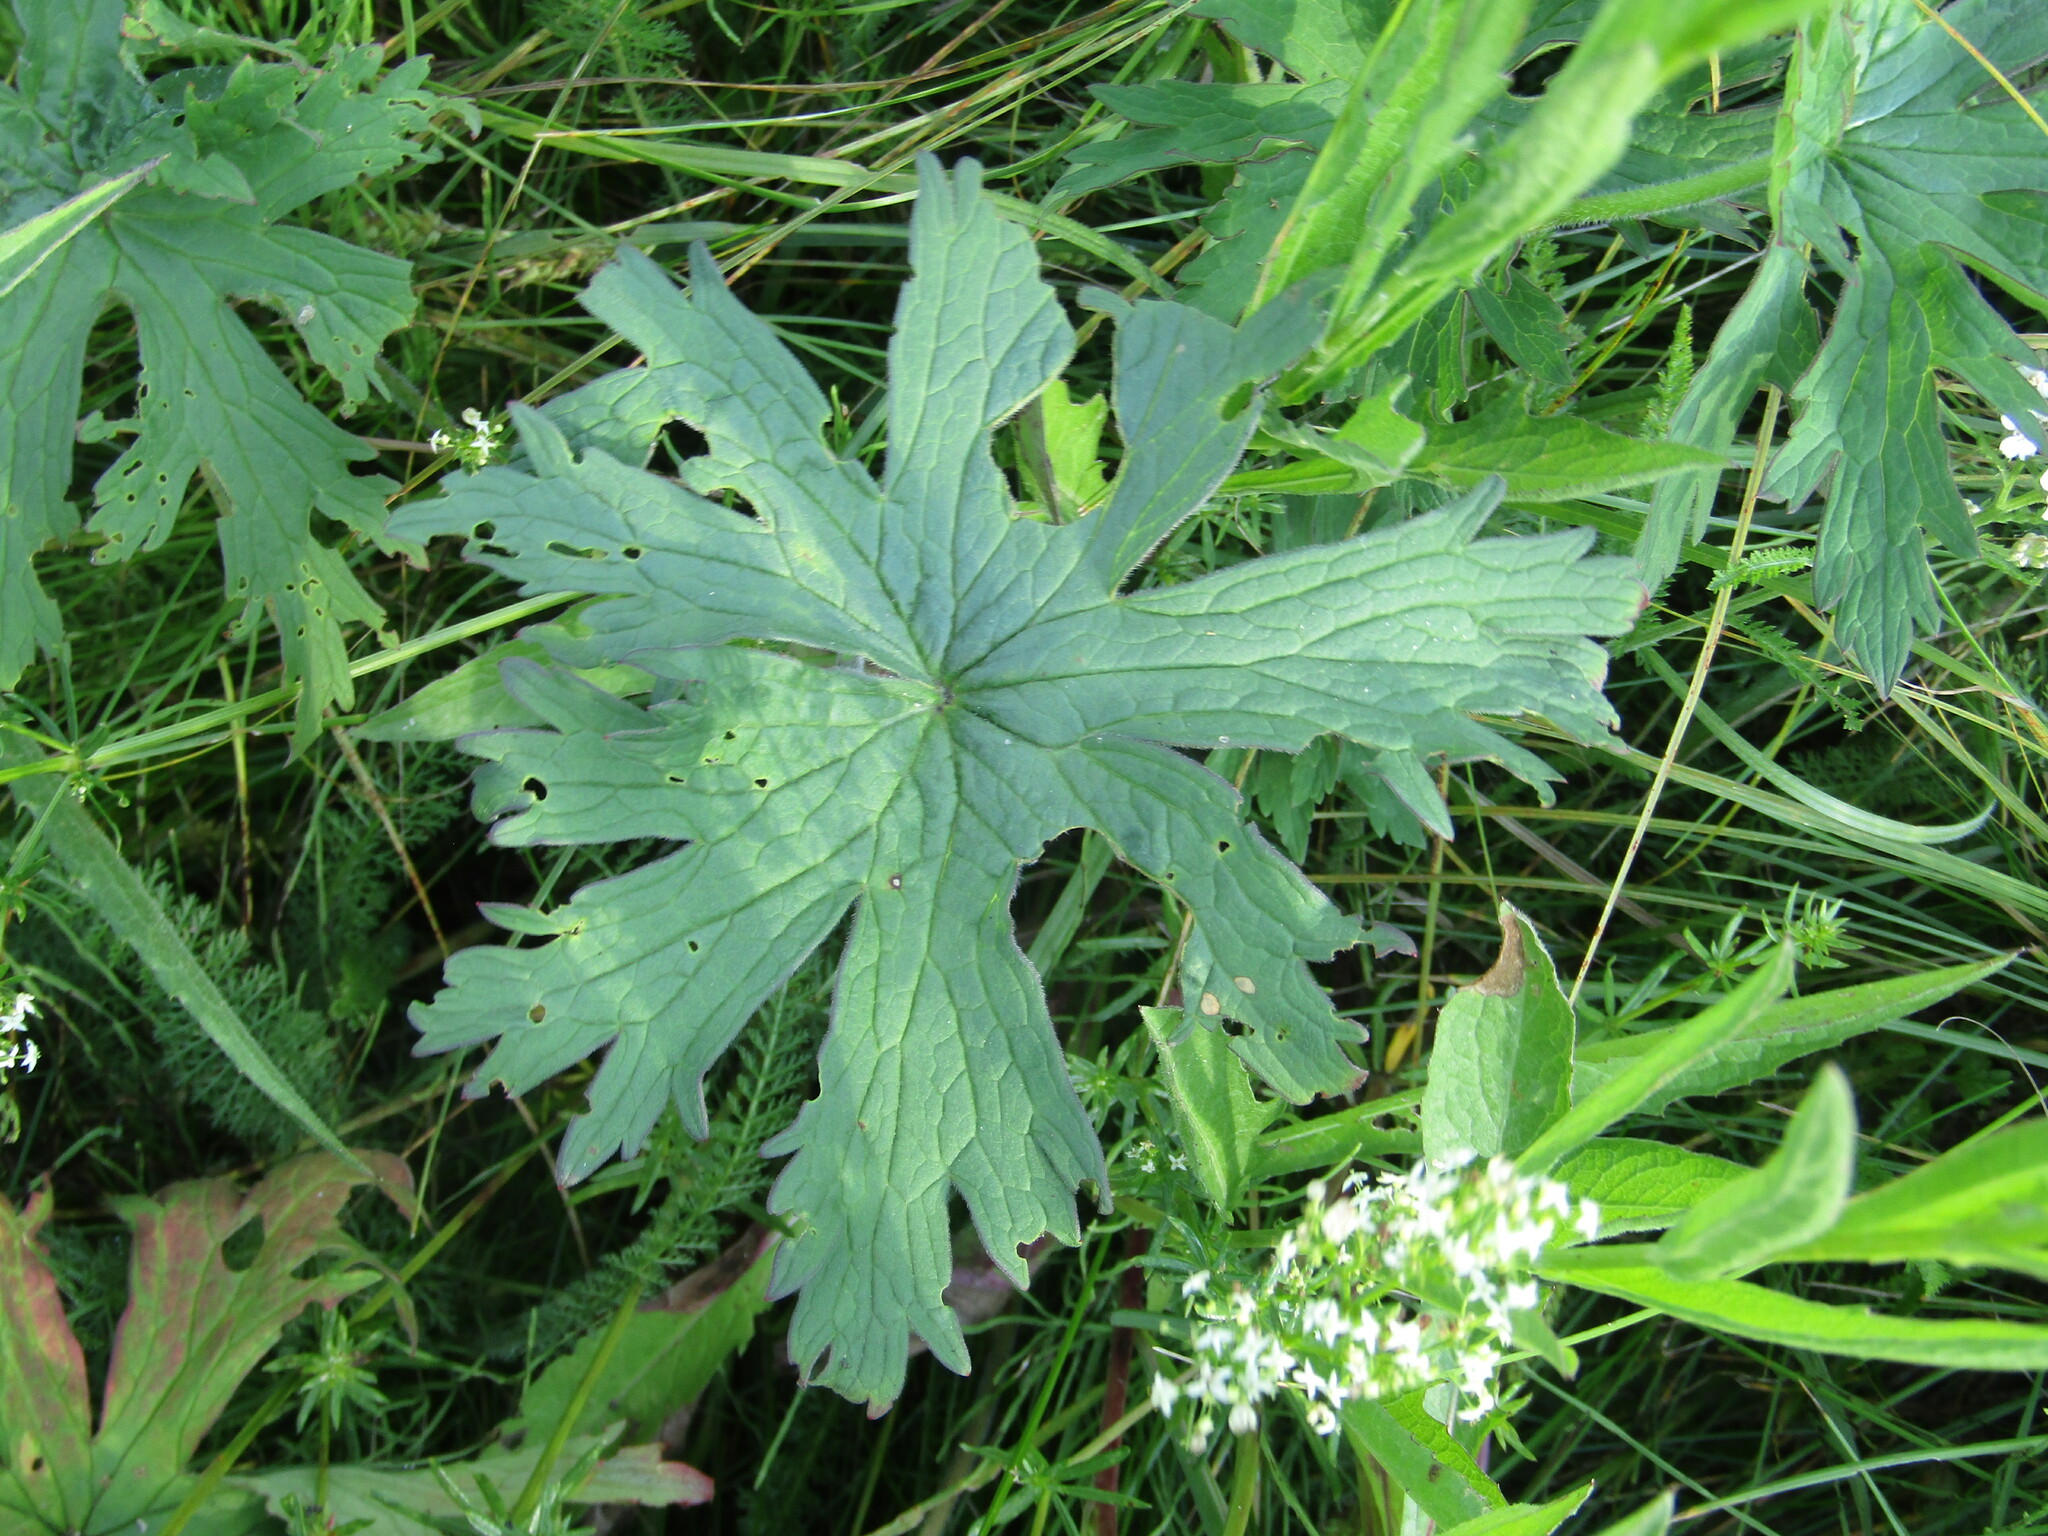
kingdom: Plantae
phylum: Tracheophyta
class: Magnoliopsida
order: Geraniales
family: Geraniaceae
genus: Geranium
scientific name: Geranium pratense
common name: Meadow crane's-bill
